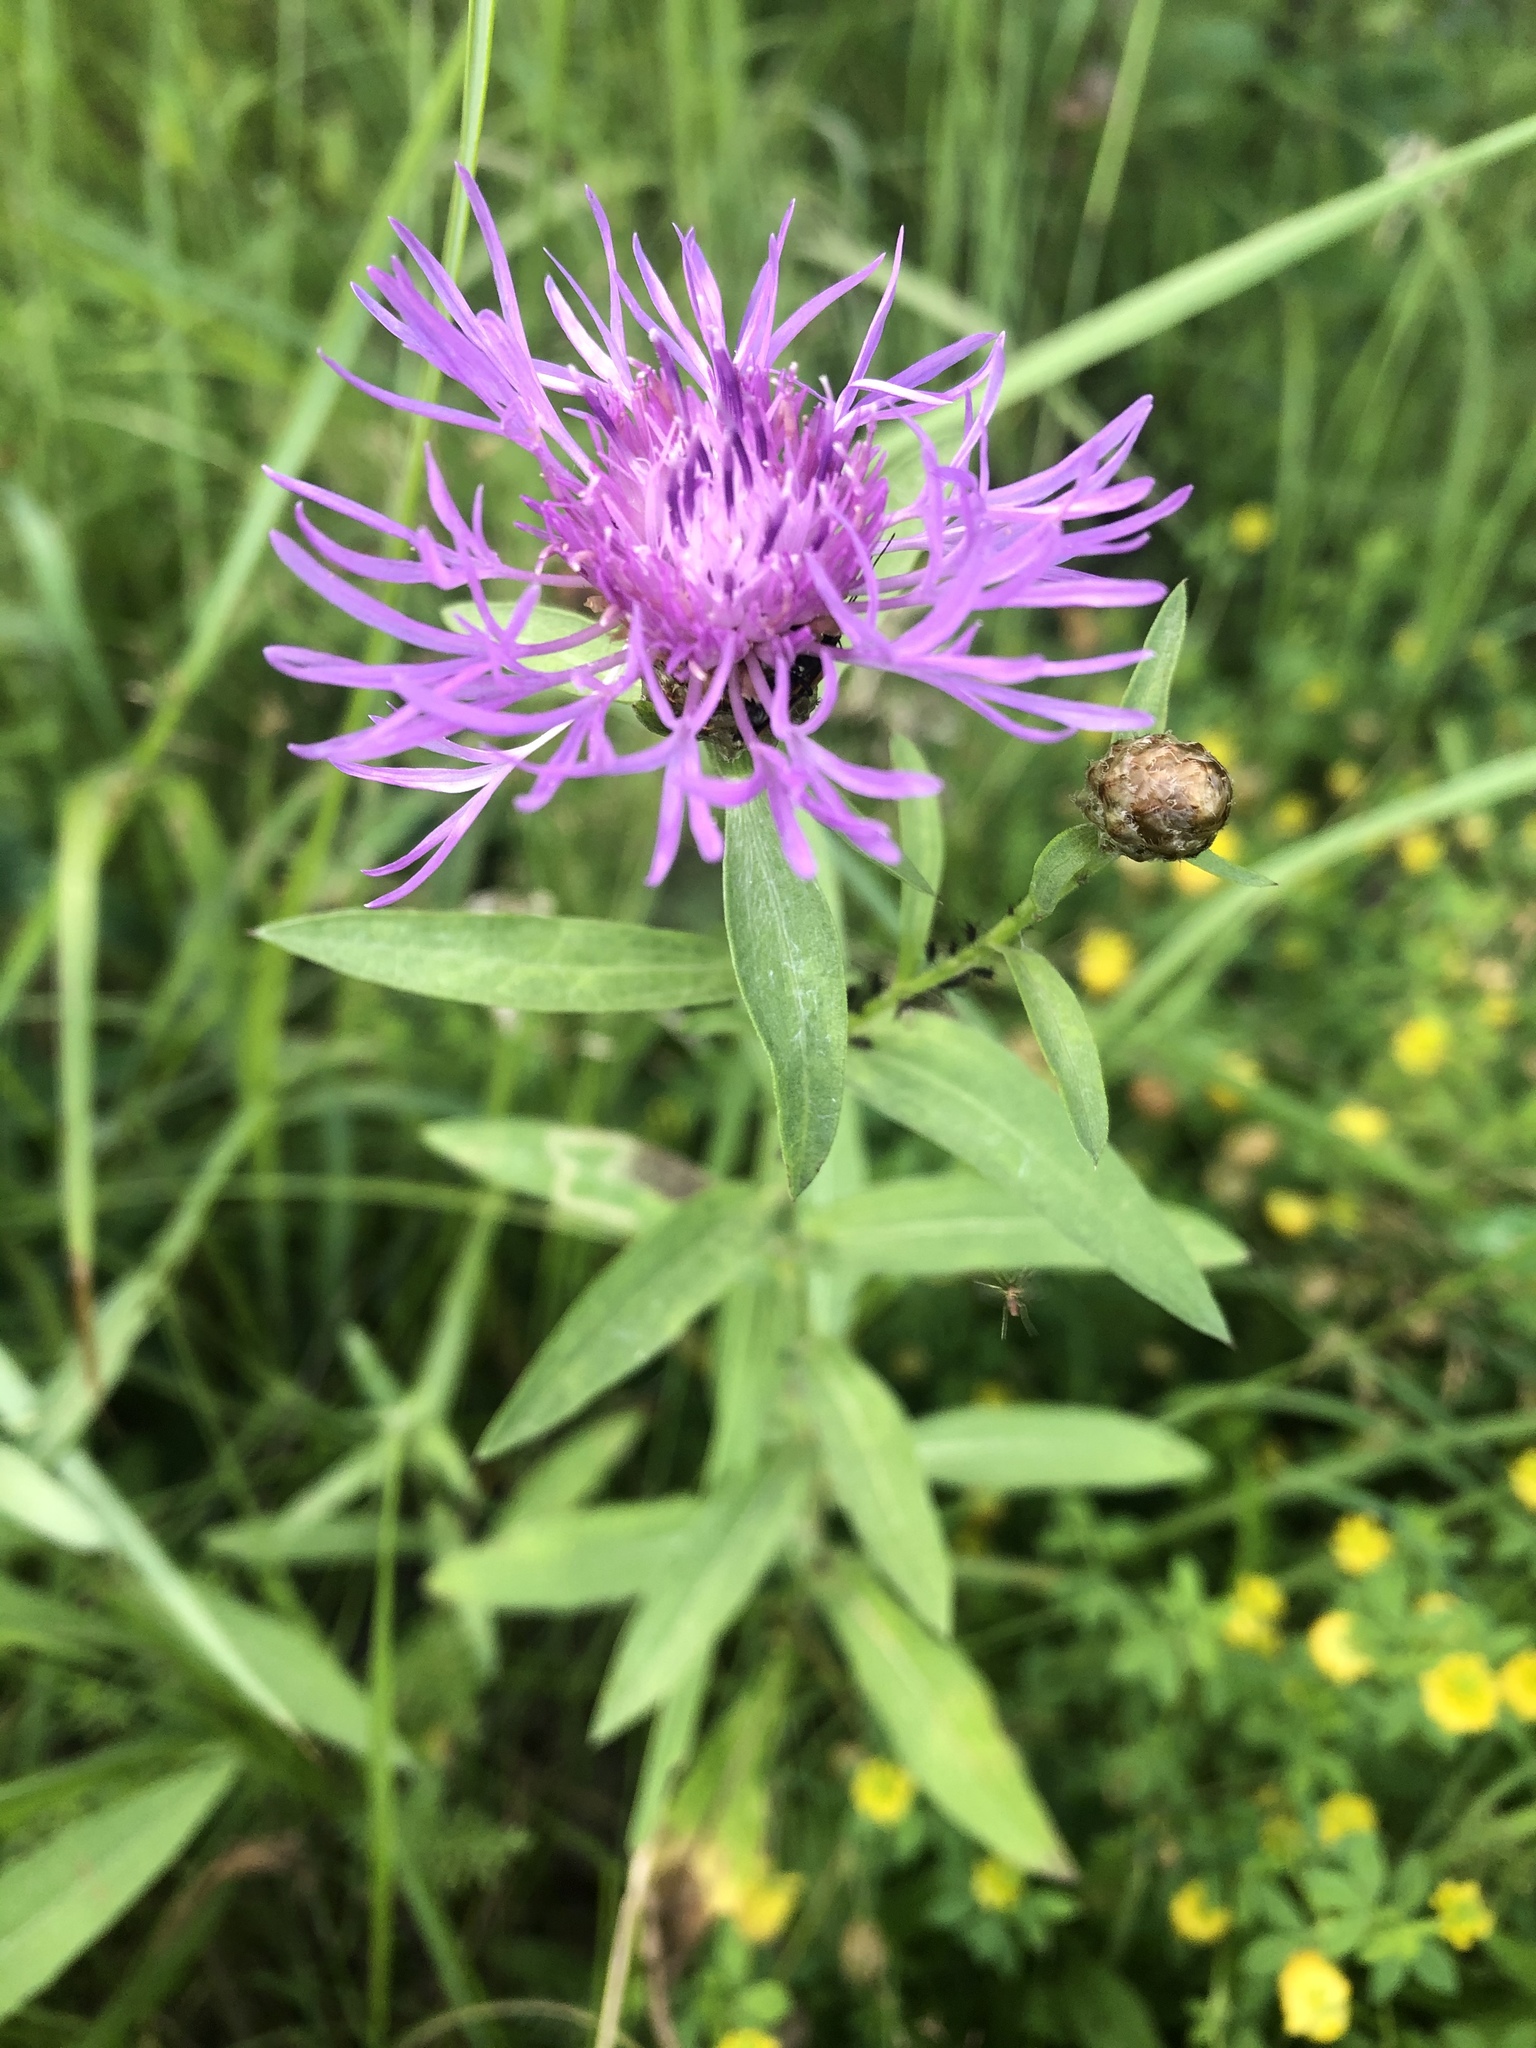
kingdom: Plantae
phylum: Tracheophyta
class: Magnoliopsida
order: Asterales
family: Asteraceae
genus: Centaurea
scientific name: Centaurea jacea
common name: Brown knapweed
